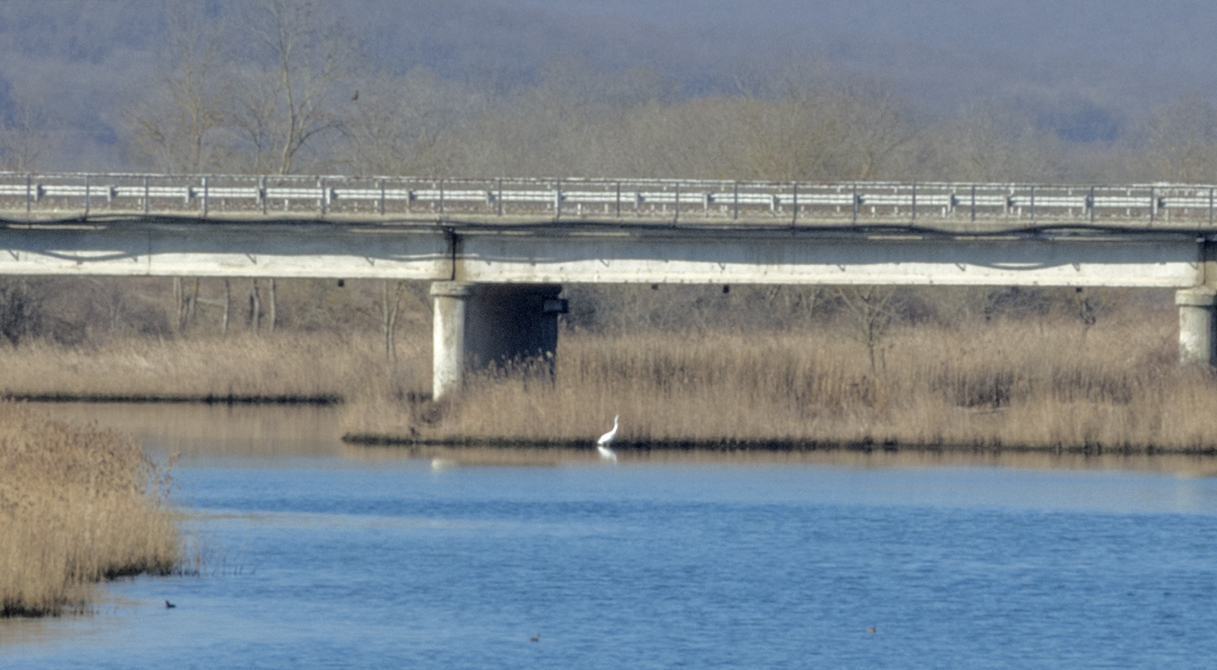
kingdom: Animalia
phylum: Chordata
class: Aves
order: Pelecaniformes
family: Ardeidae
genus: Ardea
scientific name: Ardea alba
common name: Great egret
